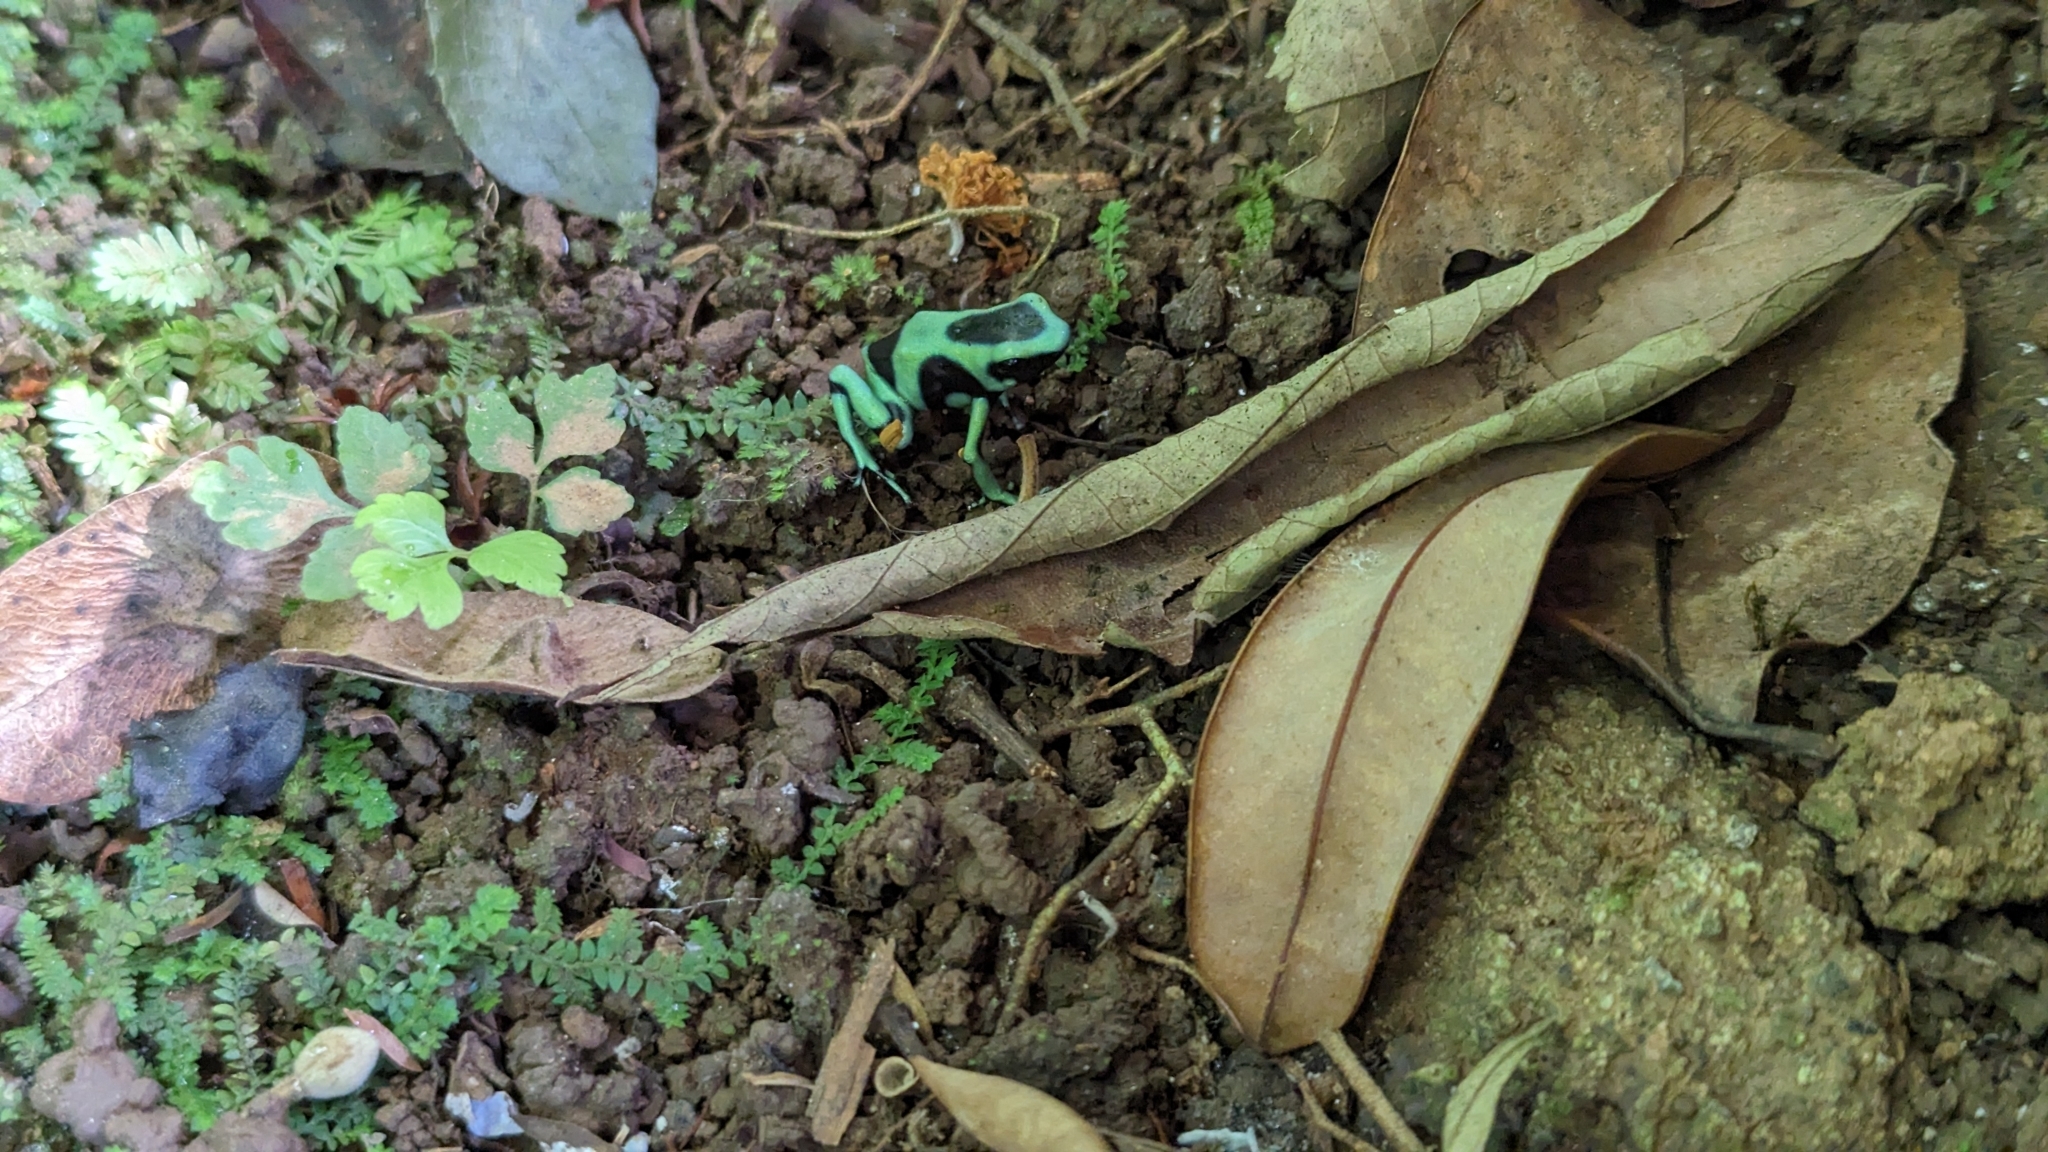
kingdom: Animalia
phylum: Chordata
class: Amphibia
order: Anura
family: Dendrobatidae
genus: Dendrobates
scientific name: Dendrobates auratus
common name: Green and black poison dart frog
